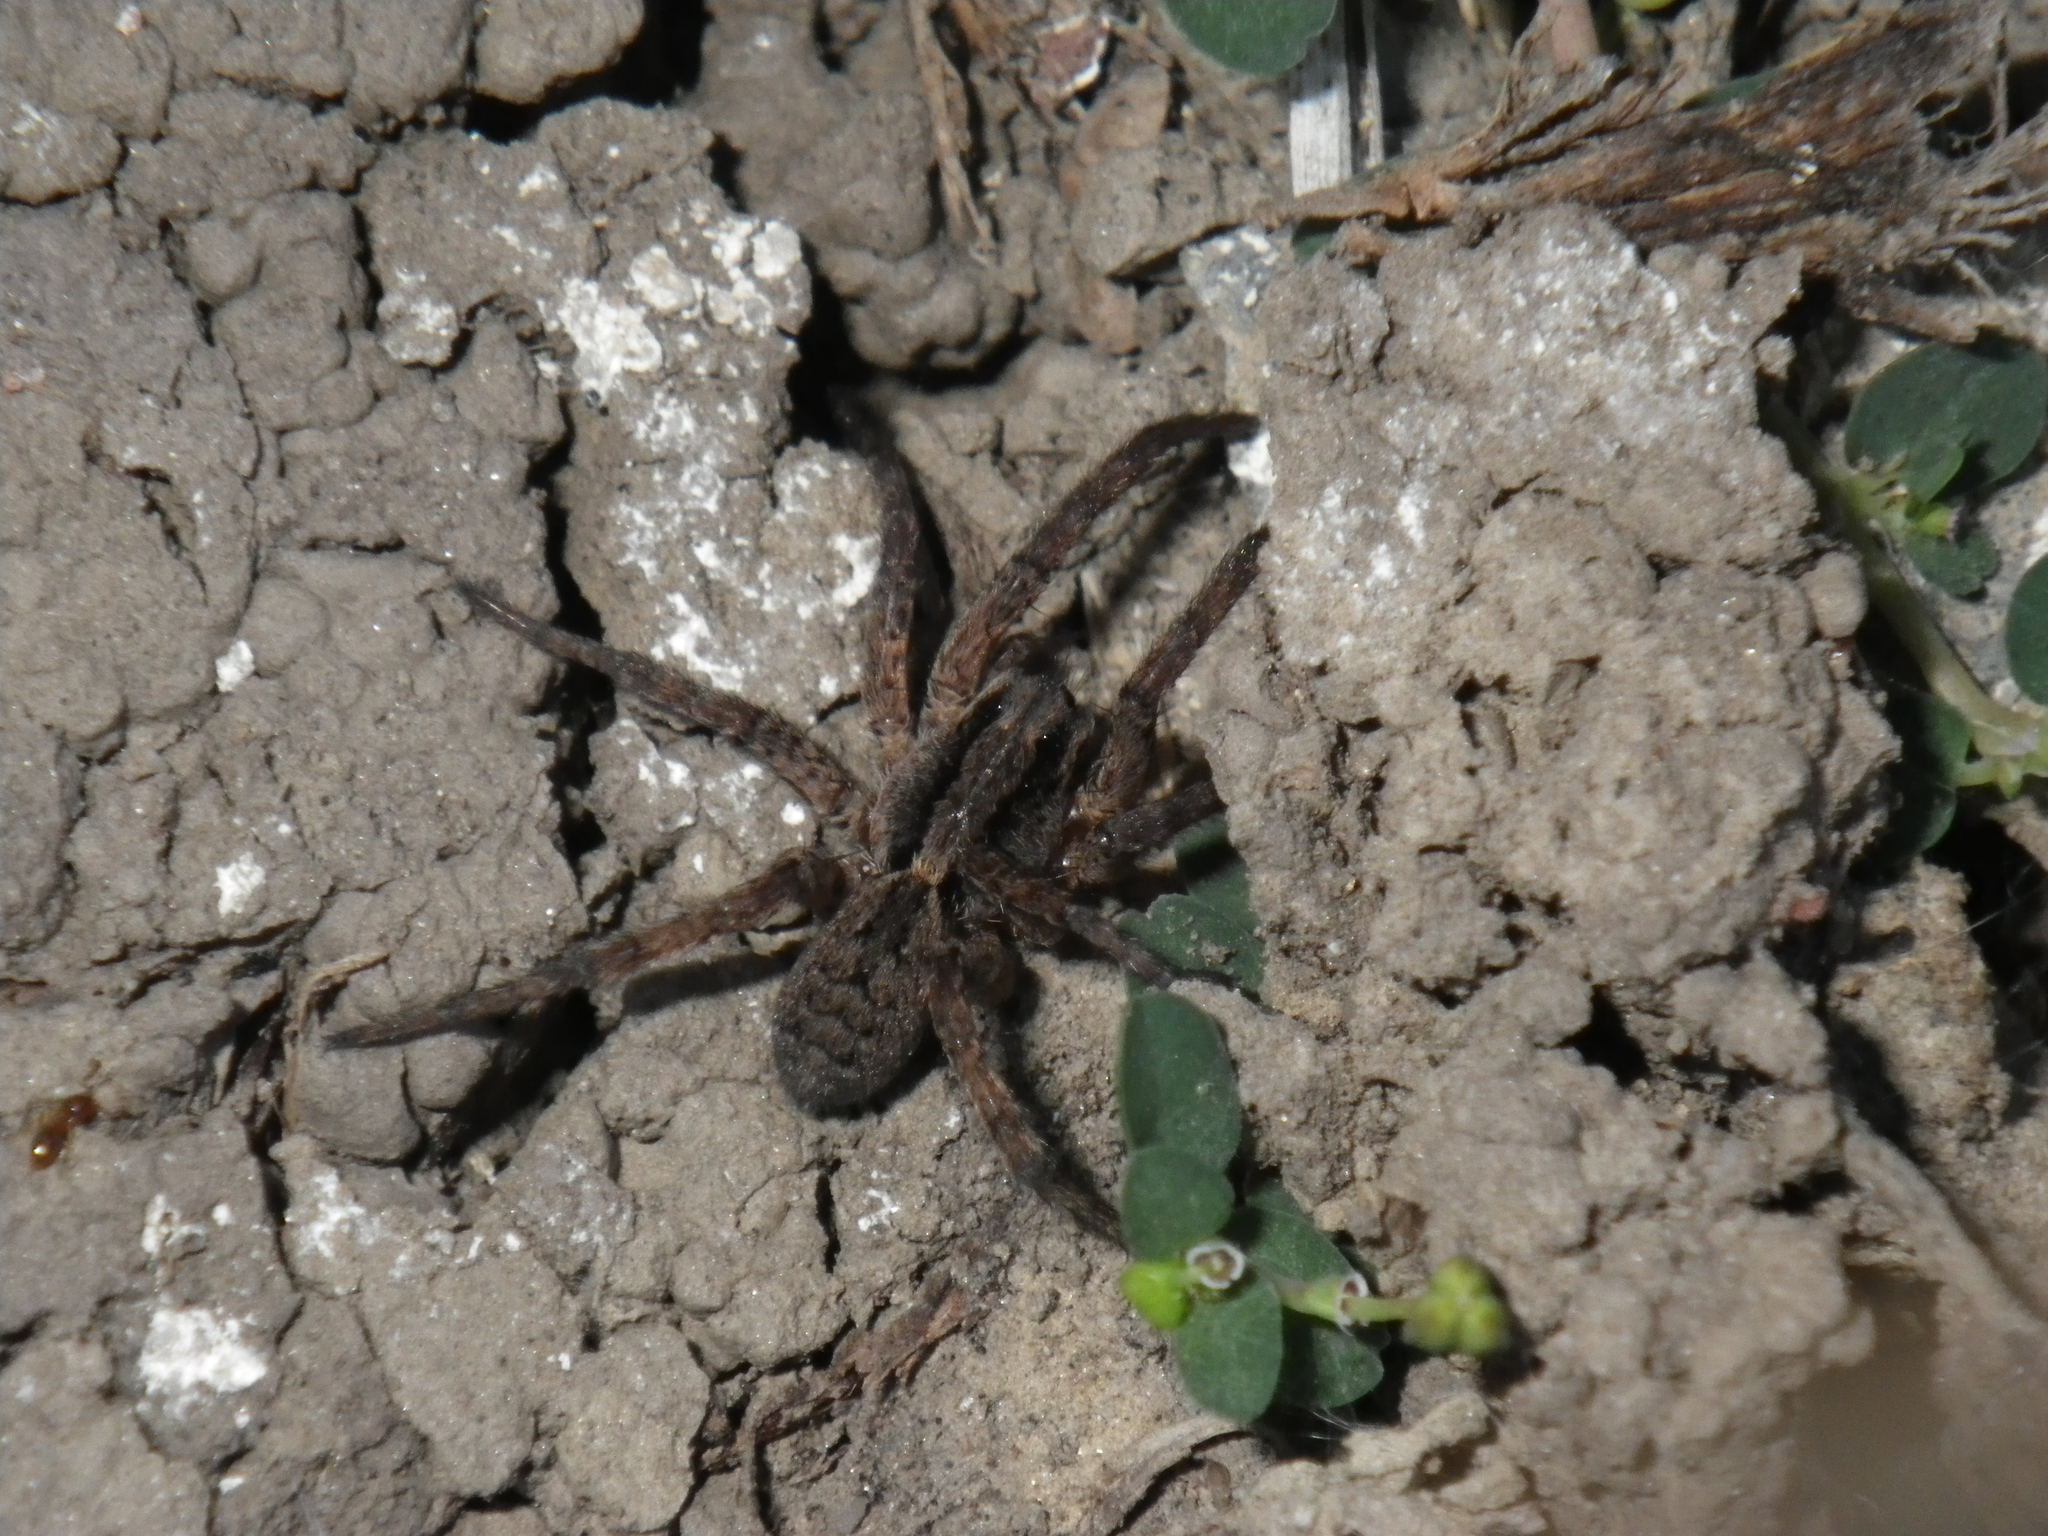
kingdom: Animalia
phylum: Arthropoda
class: Arachnida
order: Araneae
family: Lycosidae
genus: Alopecosa
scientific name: Alopecosa kochi
